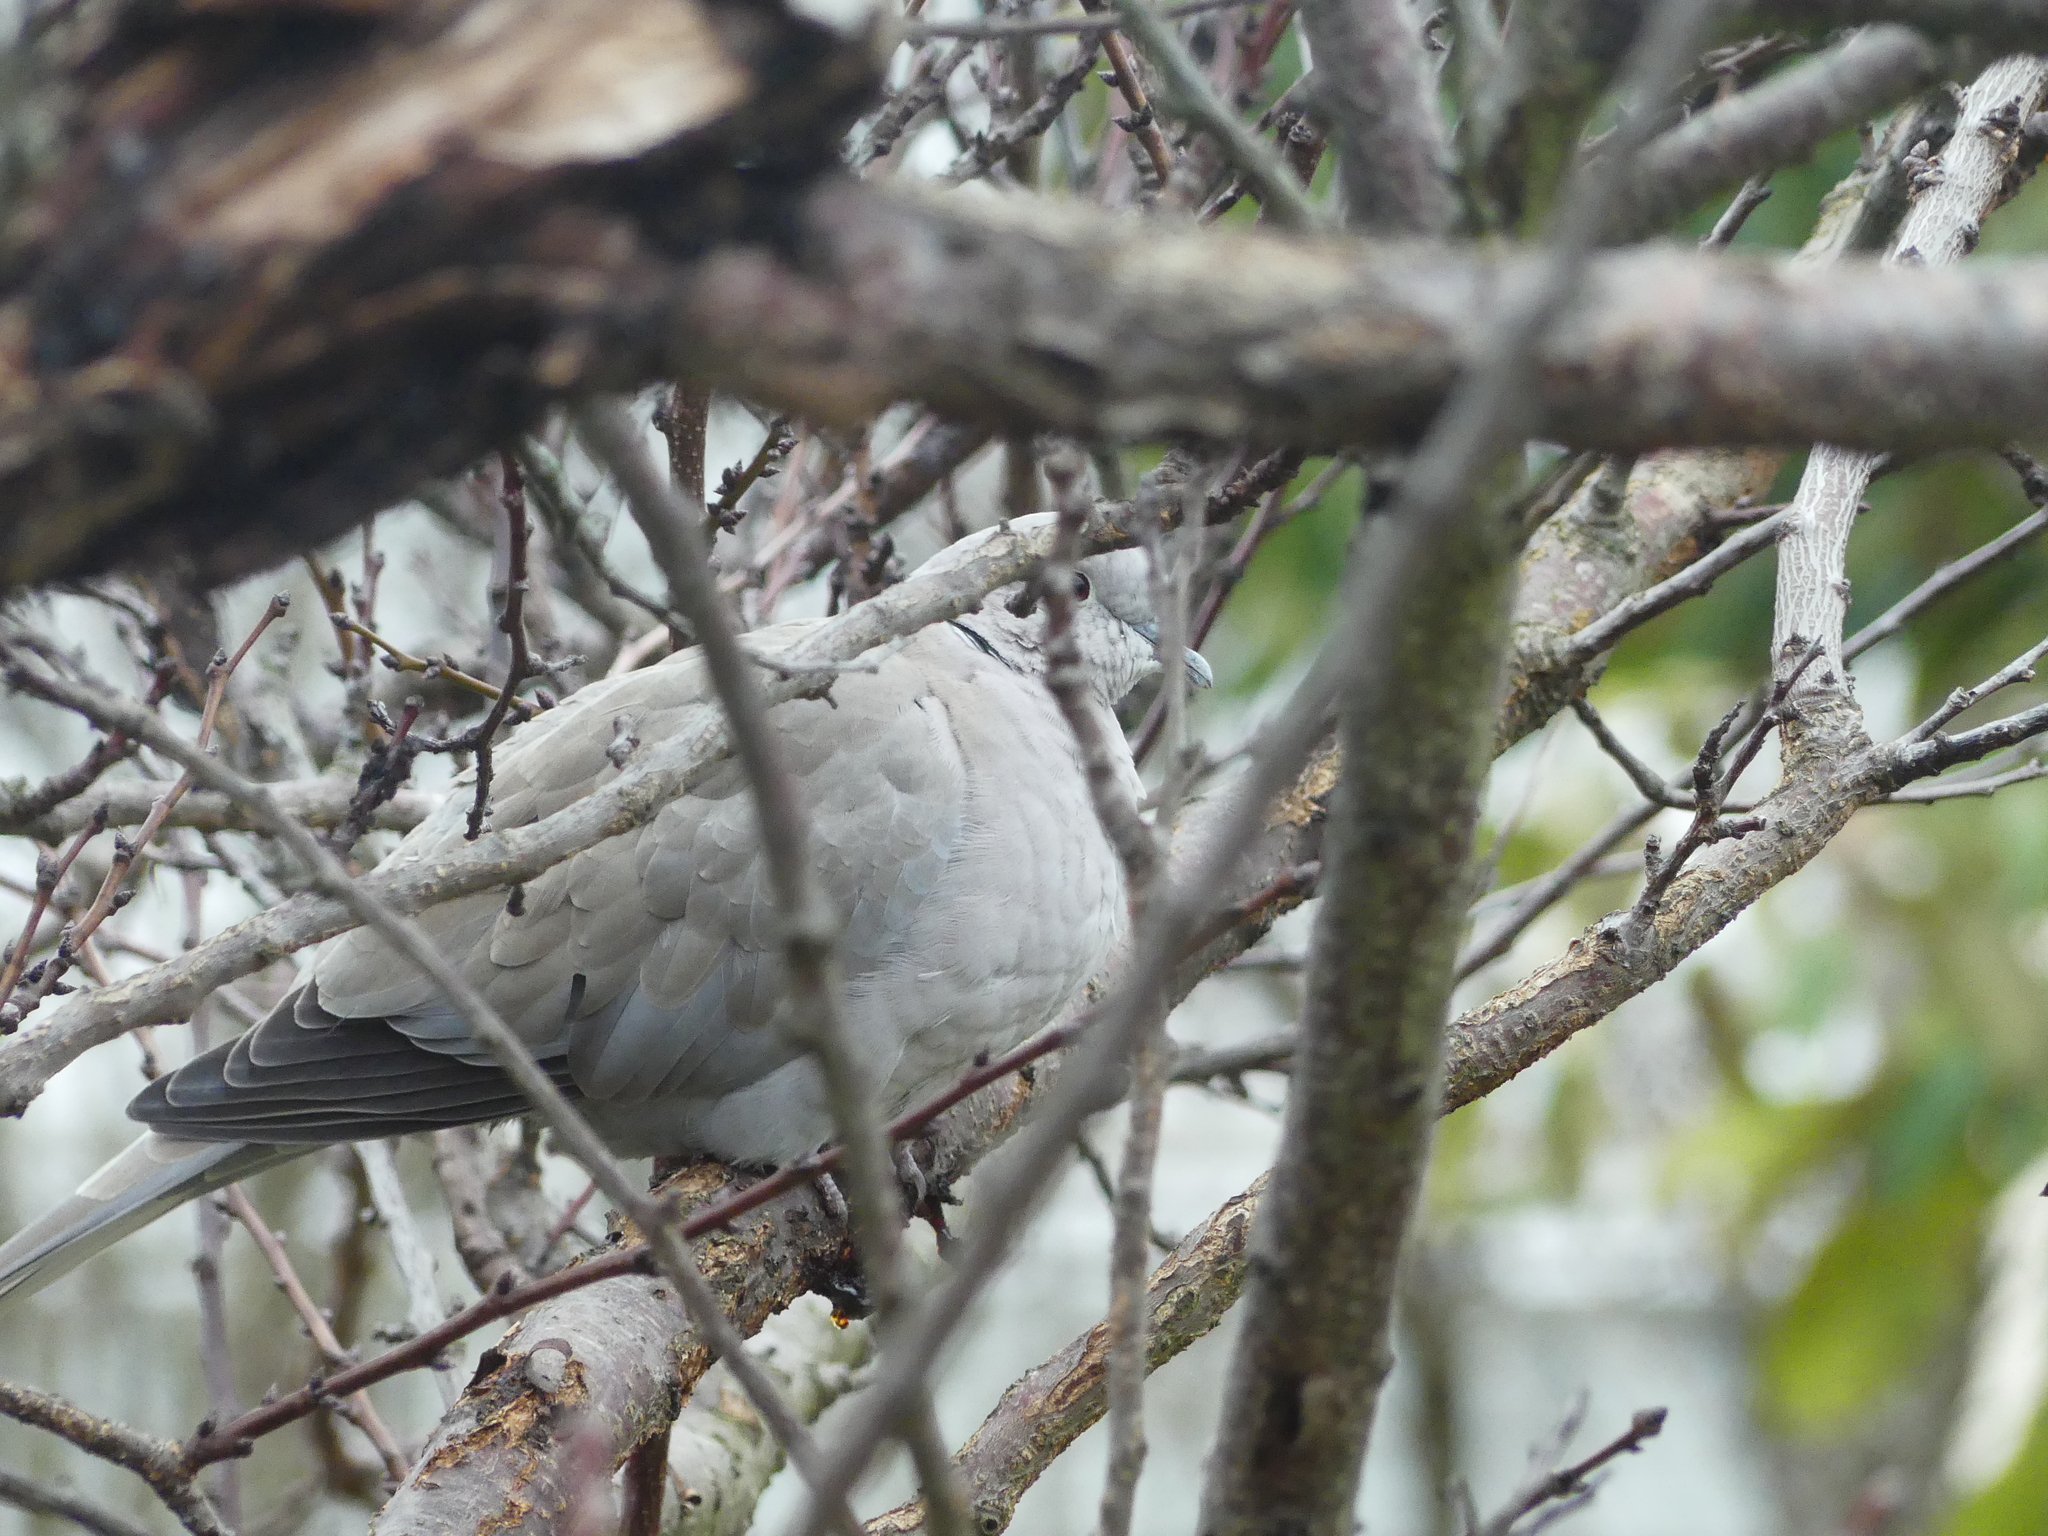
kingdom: Animalia
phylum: Chordata
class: Aves
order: Columbiformes
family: Columbidae
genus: Streptopelia
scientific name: Streptopelia decaocto
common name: Eurasian collared dove
